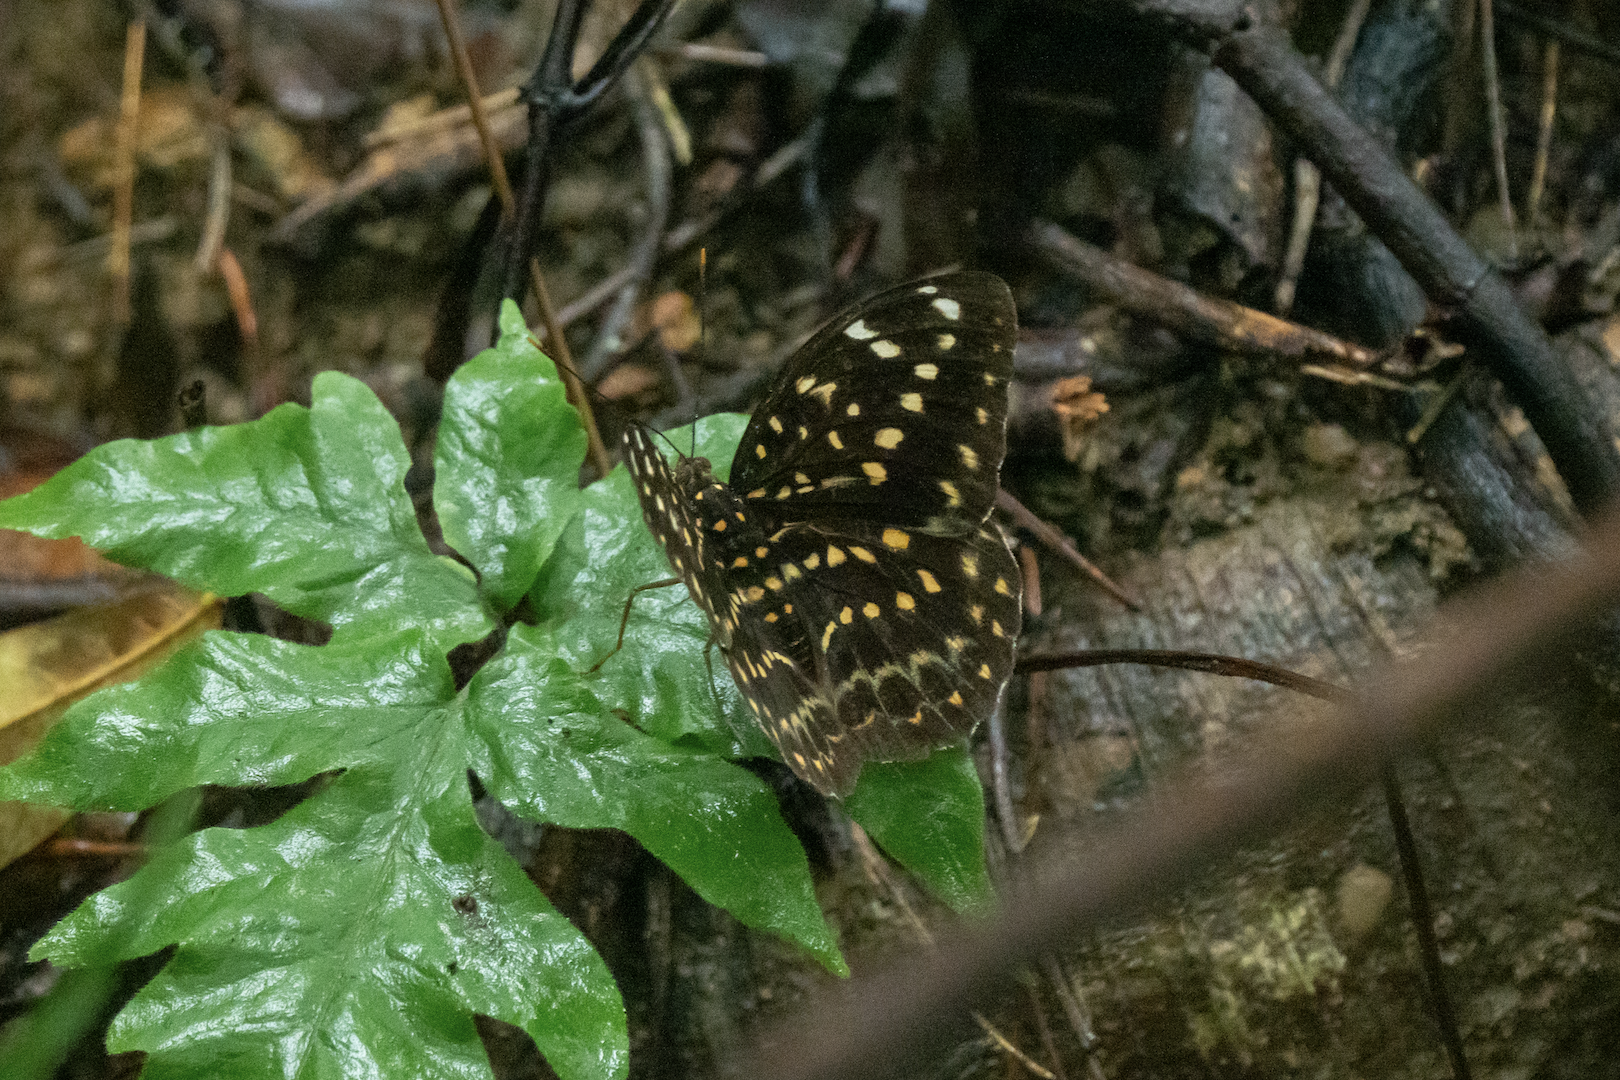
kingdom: Animalia
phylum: Arthropoda
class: Insecta
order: Lepidoptera
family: Nymphalidae
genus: Lexias
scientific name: Lexias pardalis
